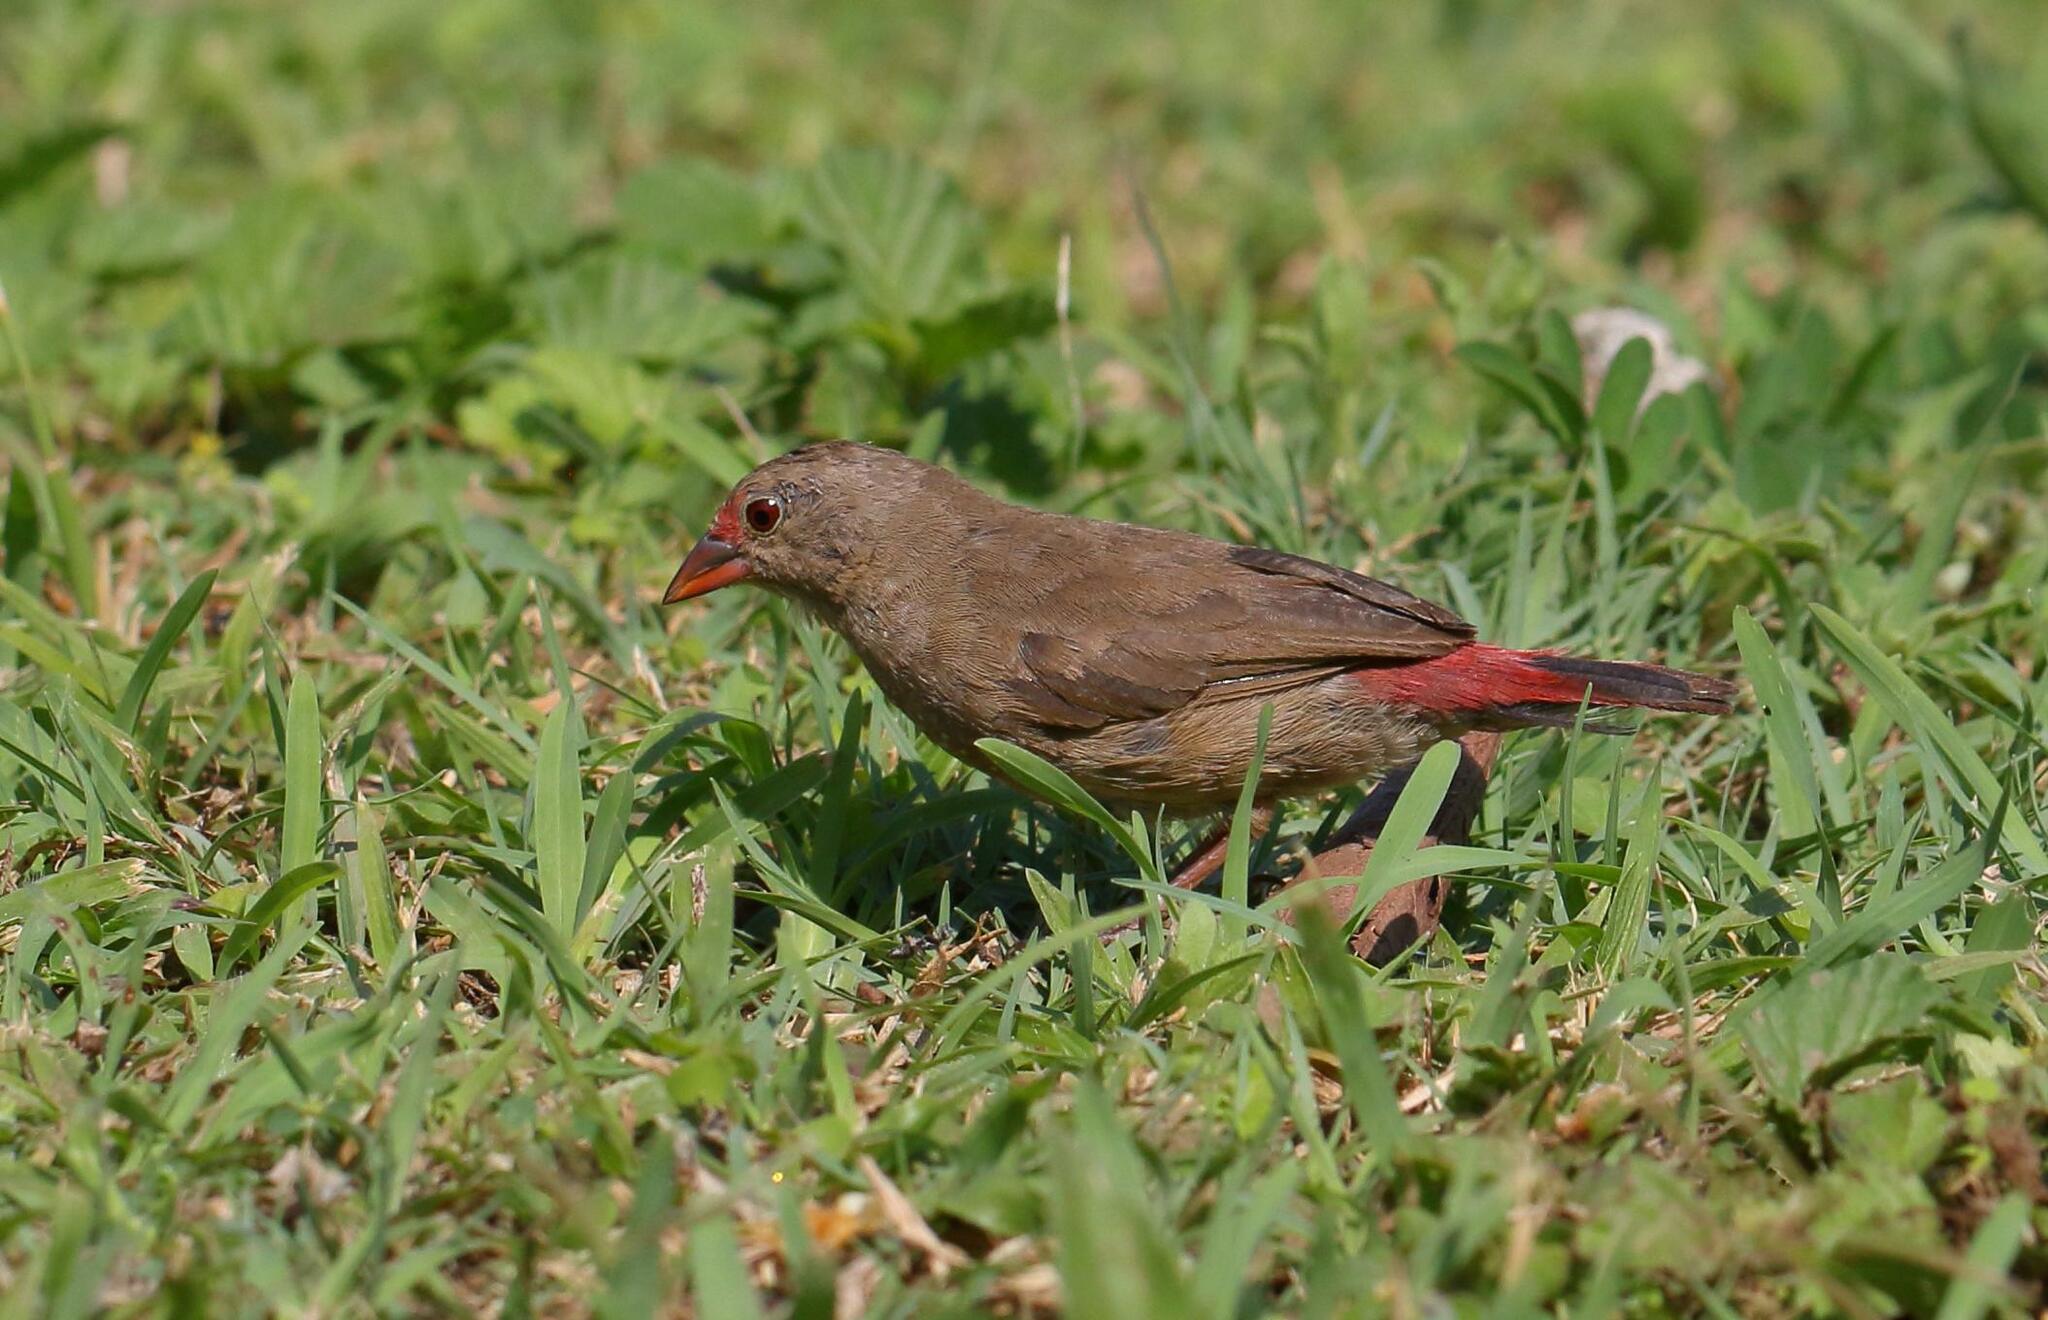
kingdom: Animalia
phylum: Chordata
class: Aves
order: Passeriformes
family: Estrildidae
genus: Lagonosticta
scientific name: Lagonosticta senegala
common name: Red-billed firefinch
